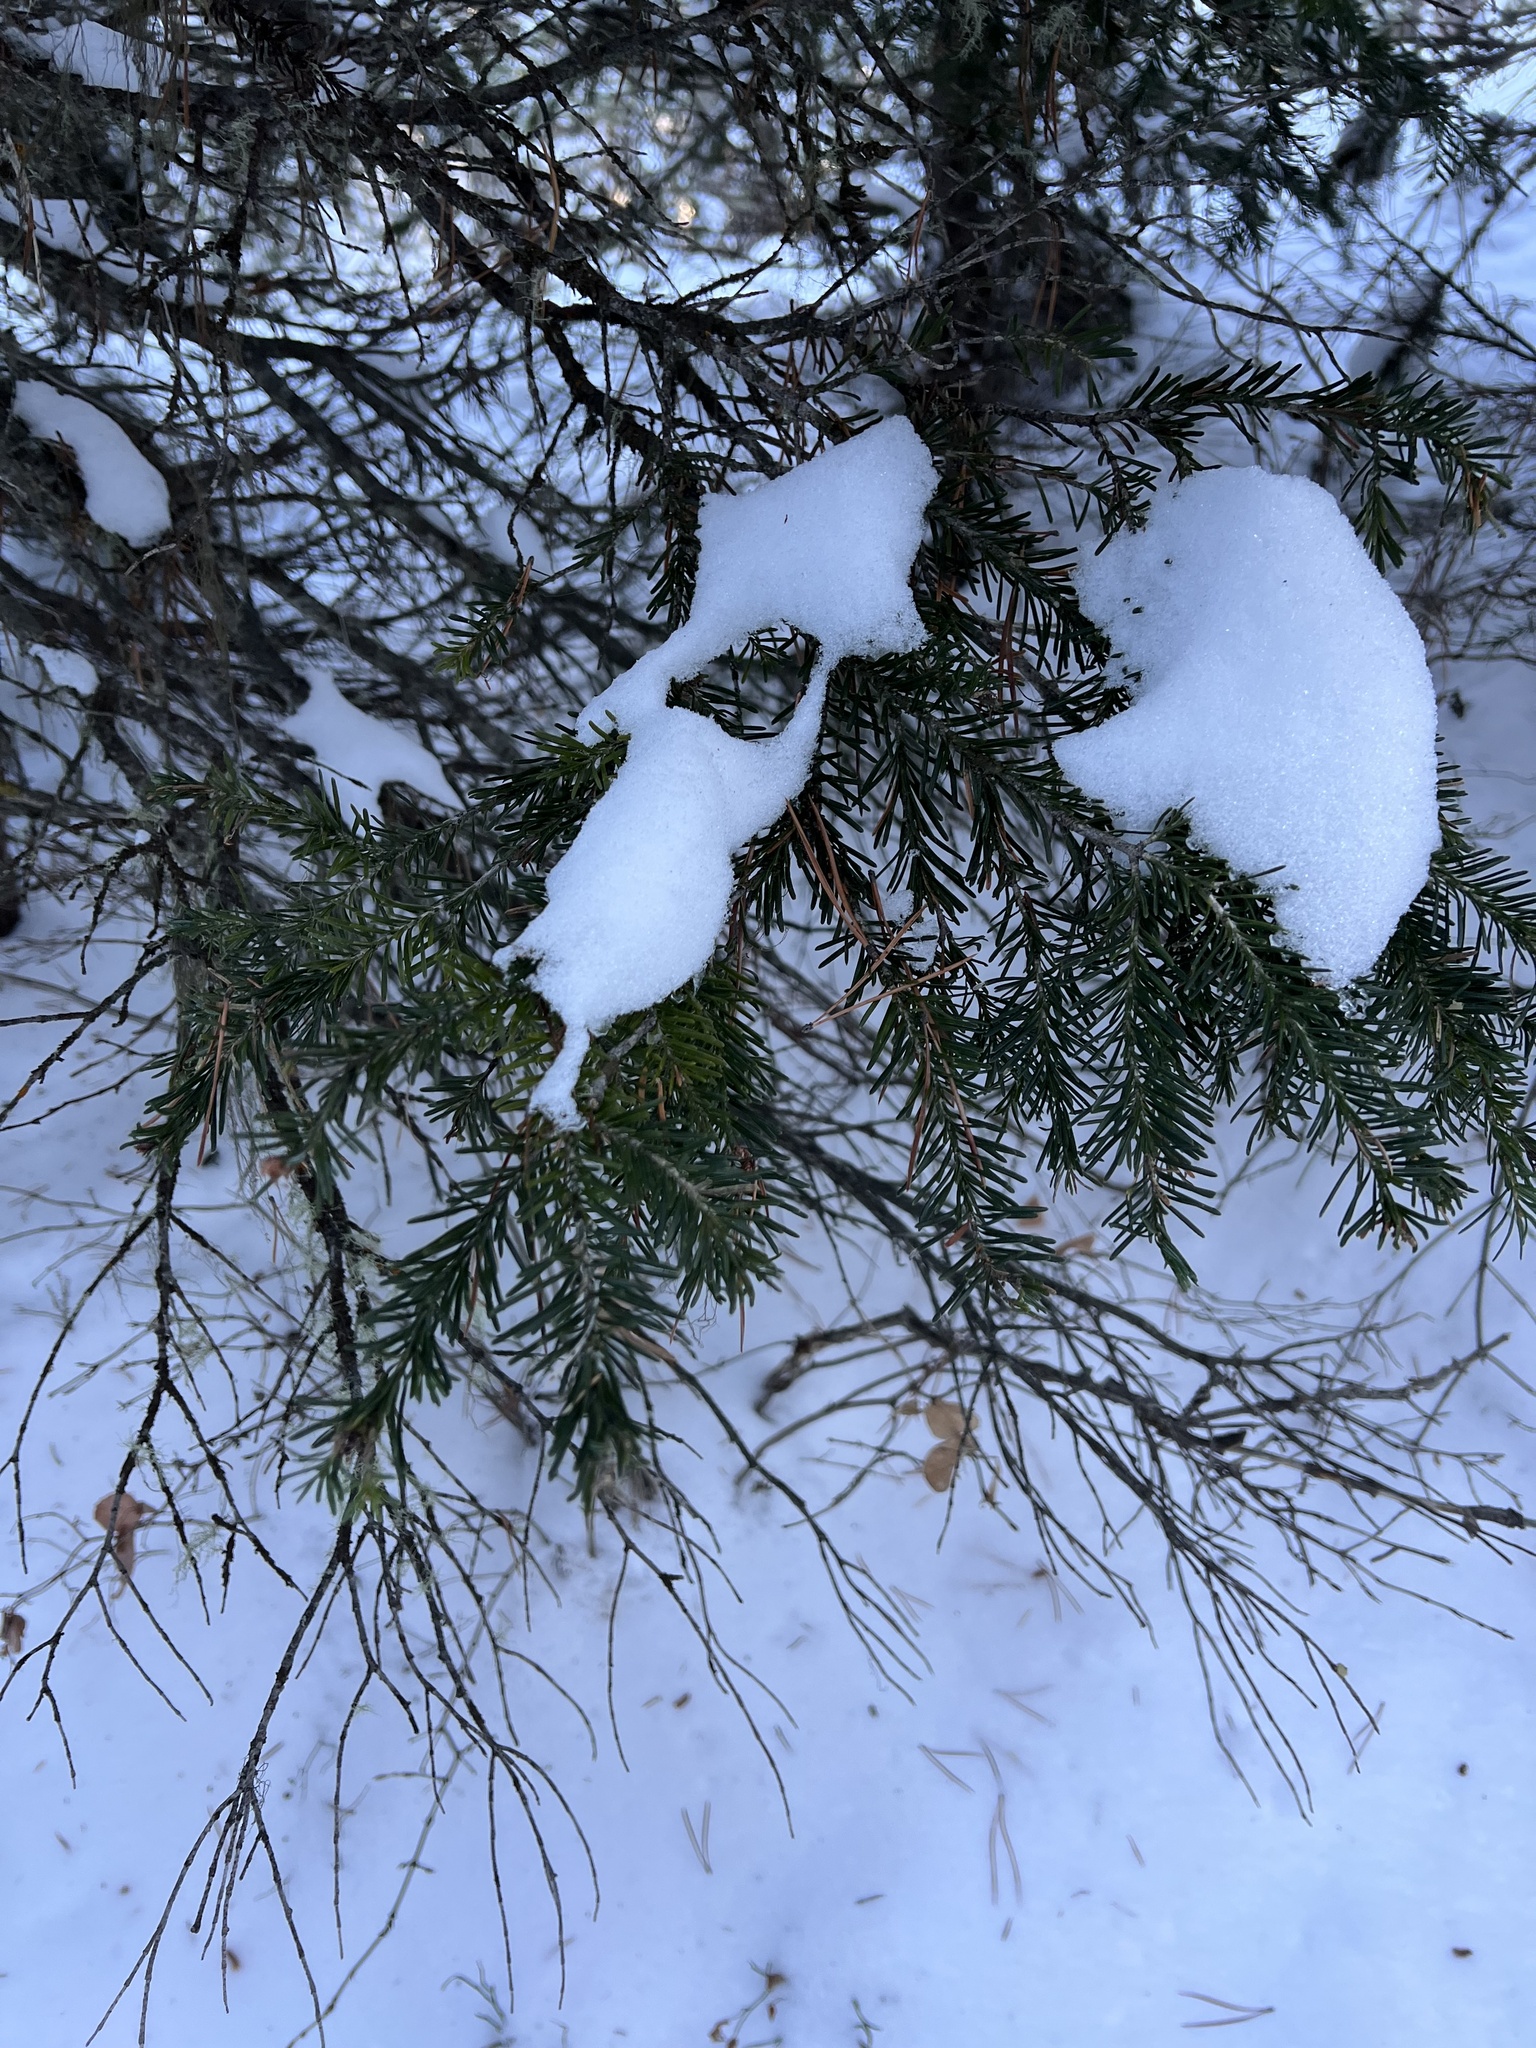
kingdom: Plantae
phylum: Tracheophyta
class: Pinopsida
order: Pinales
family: Pinaceae
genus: Abies
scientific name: Abies lasiocarpa
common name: Subalpine fir
